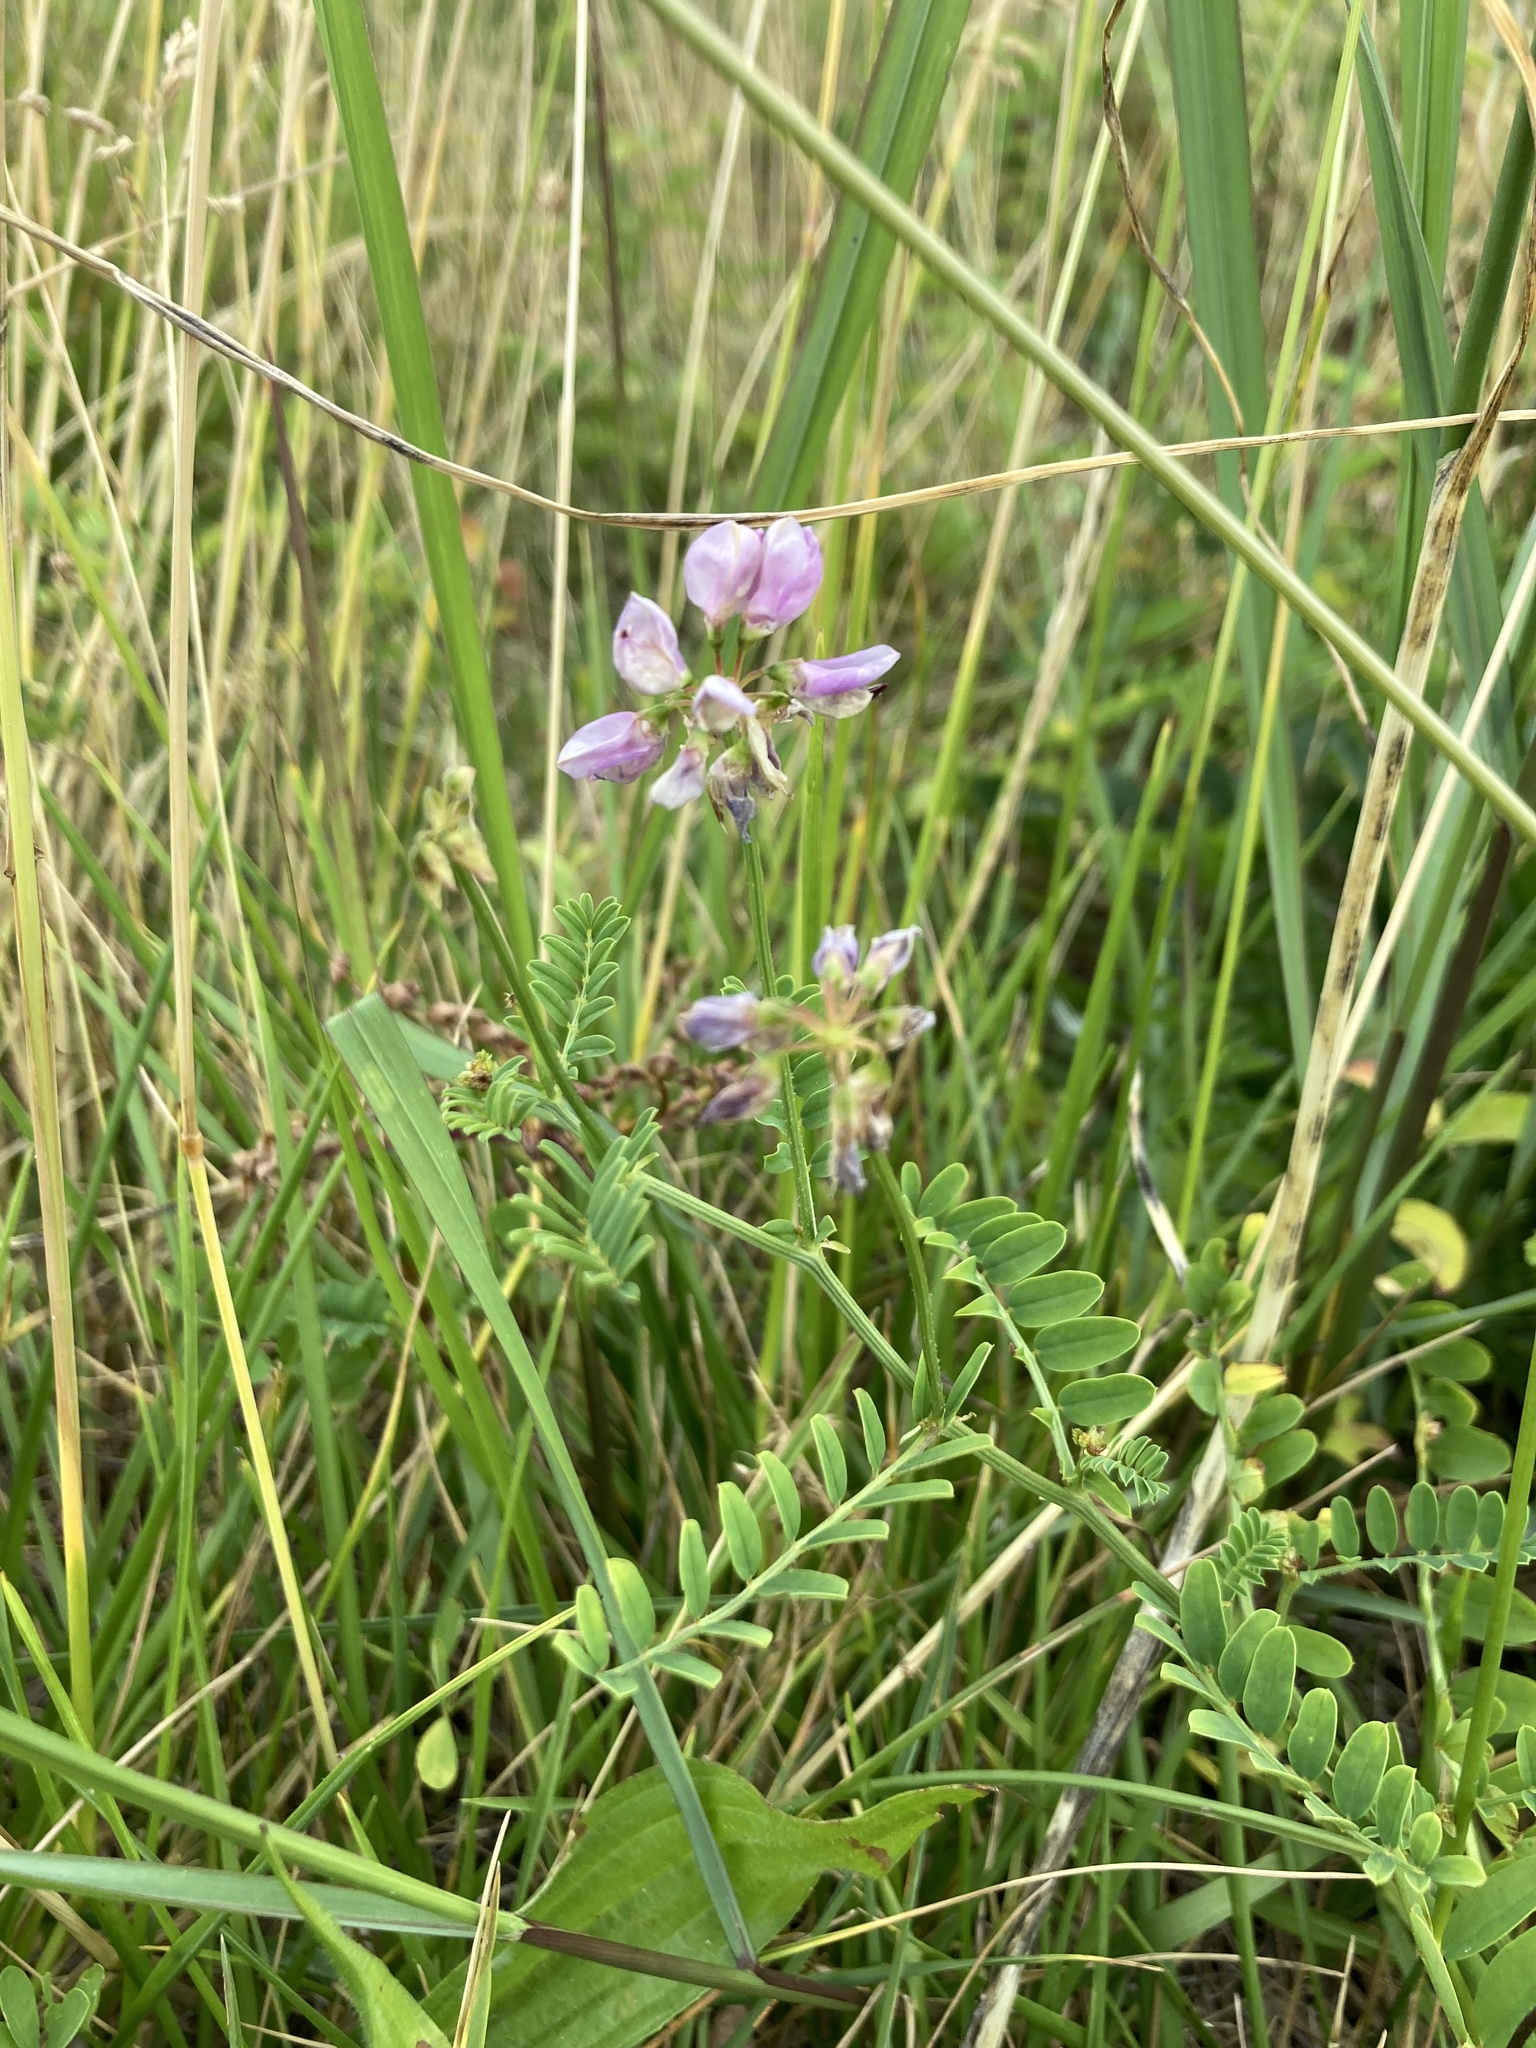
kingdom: Plantae
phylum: Tracheophyta
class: Magnoliopsida
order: Fabales
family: Fabaceae
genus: Coronilla
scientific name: Coronilla varia
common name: Crownvetch
